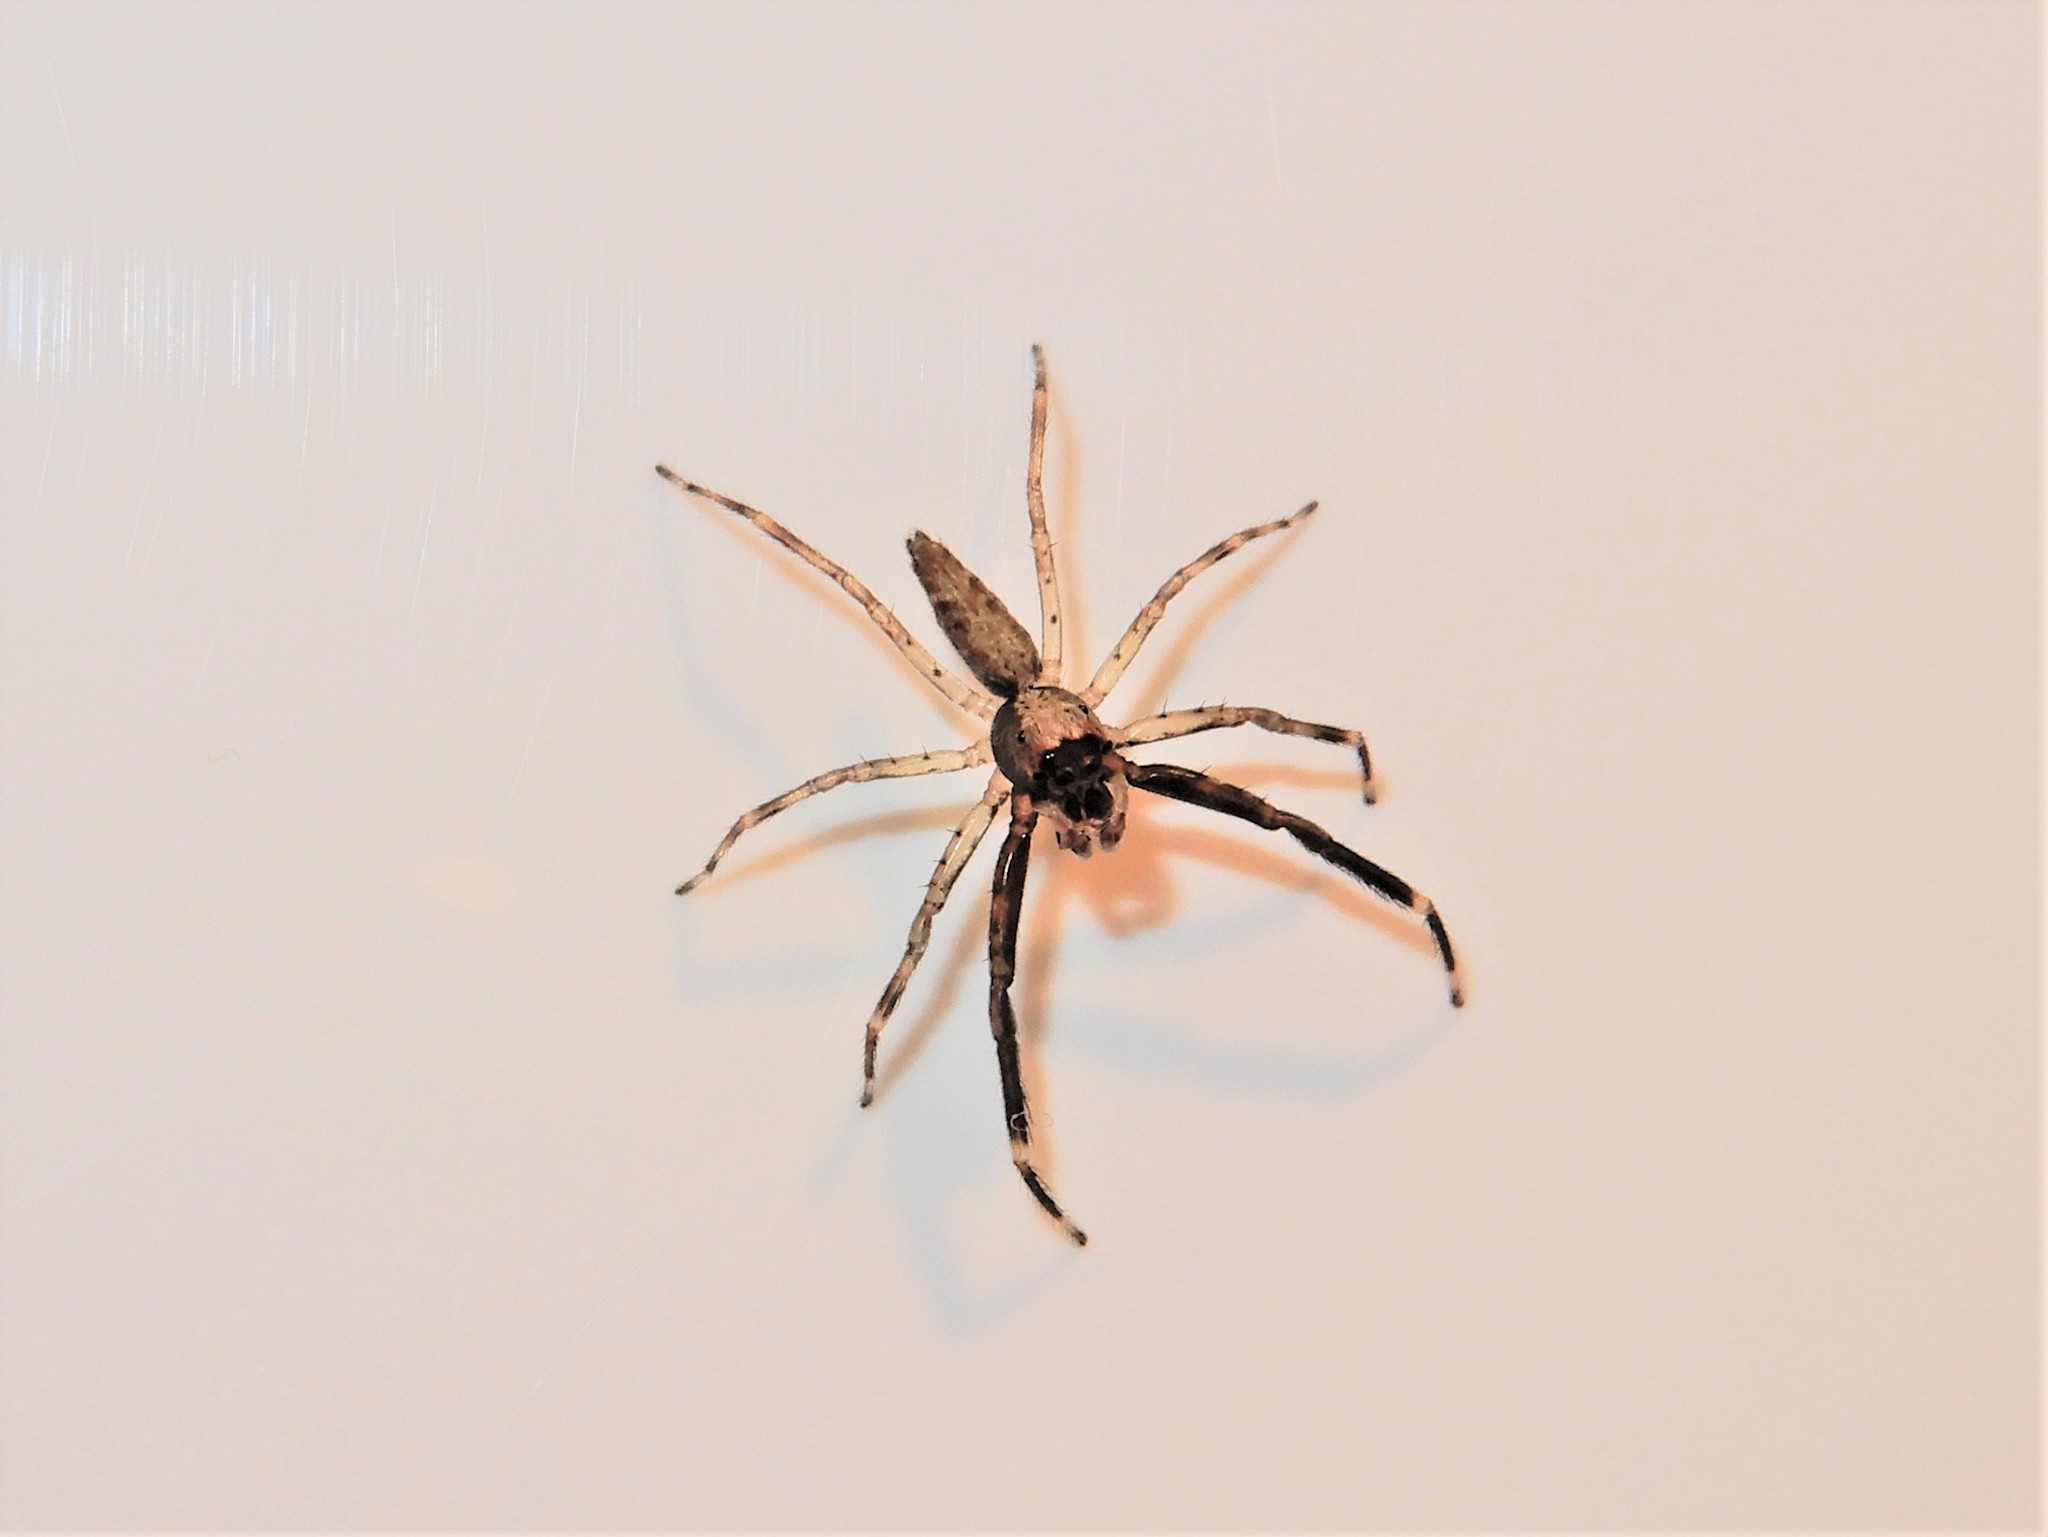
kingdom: Animalia
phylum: Arthropoda
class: Arachnida
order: Araneae
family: Salticidae
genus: Helpis
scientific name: Helpis minitabunda
